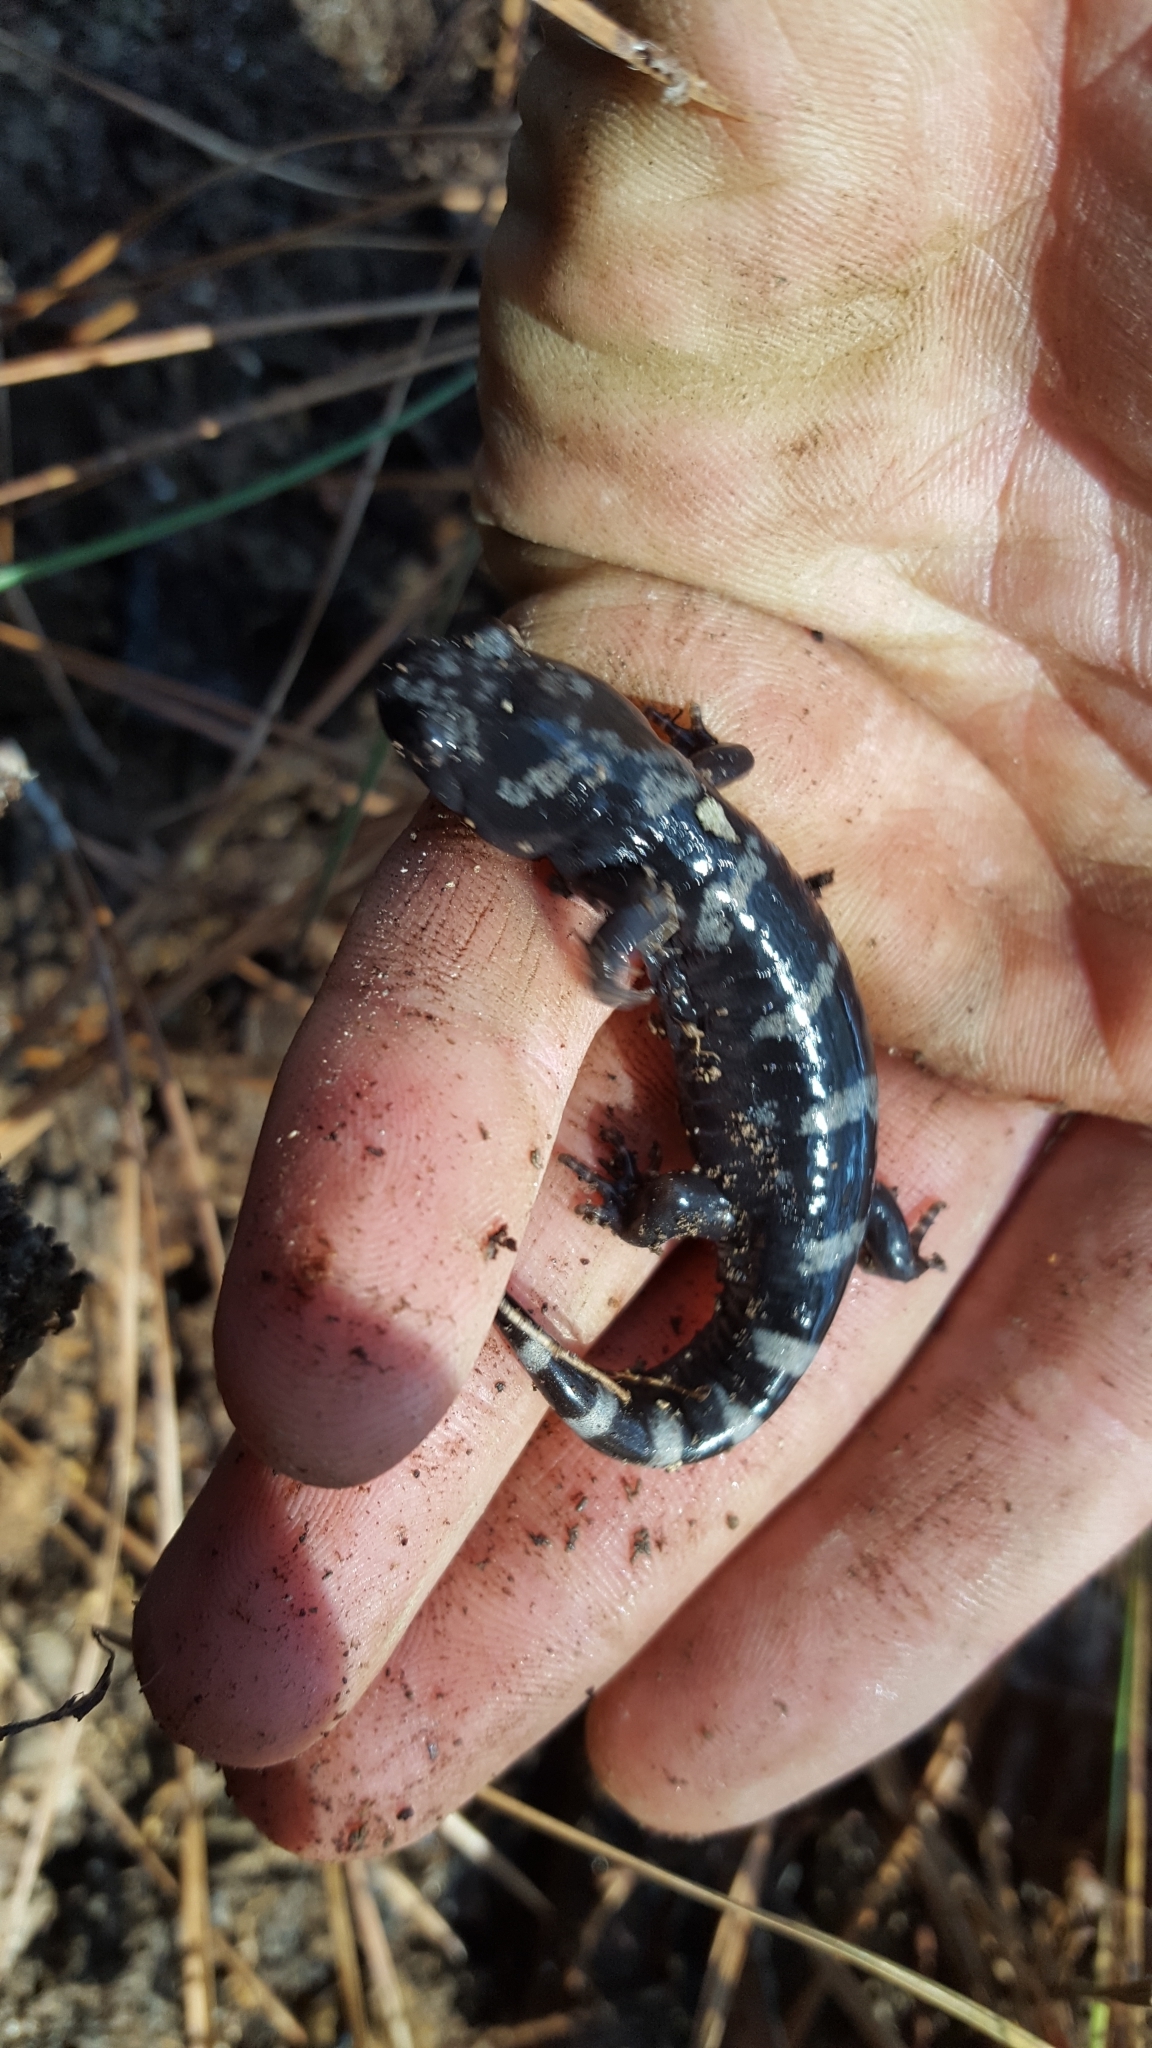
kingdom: Animalia
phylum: Chordata
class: Amphibia
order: Caudata
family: Ambystomatidae
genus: Ambystoma
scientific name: Ambystoma opacum
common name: Marbled salamander
